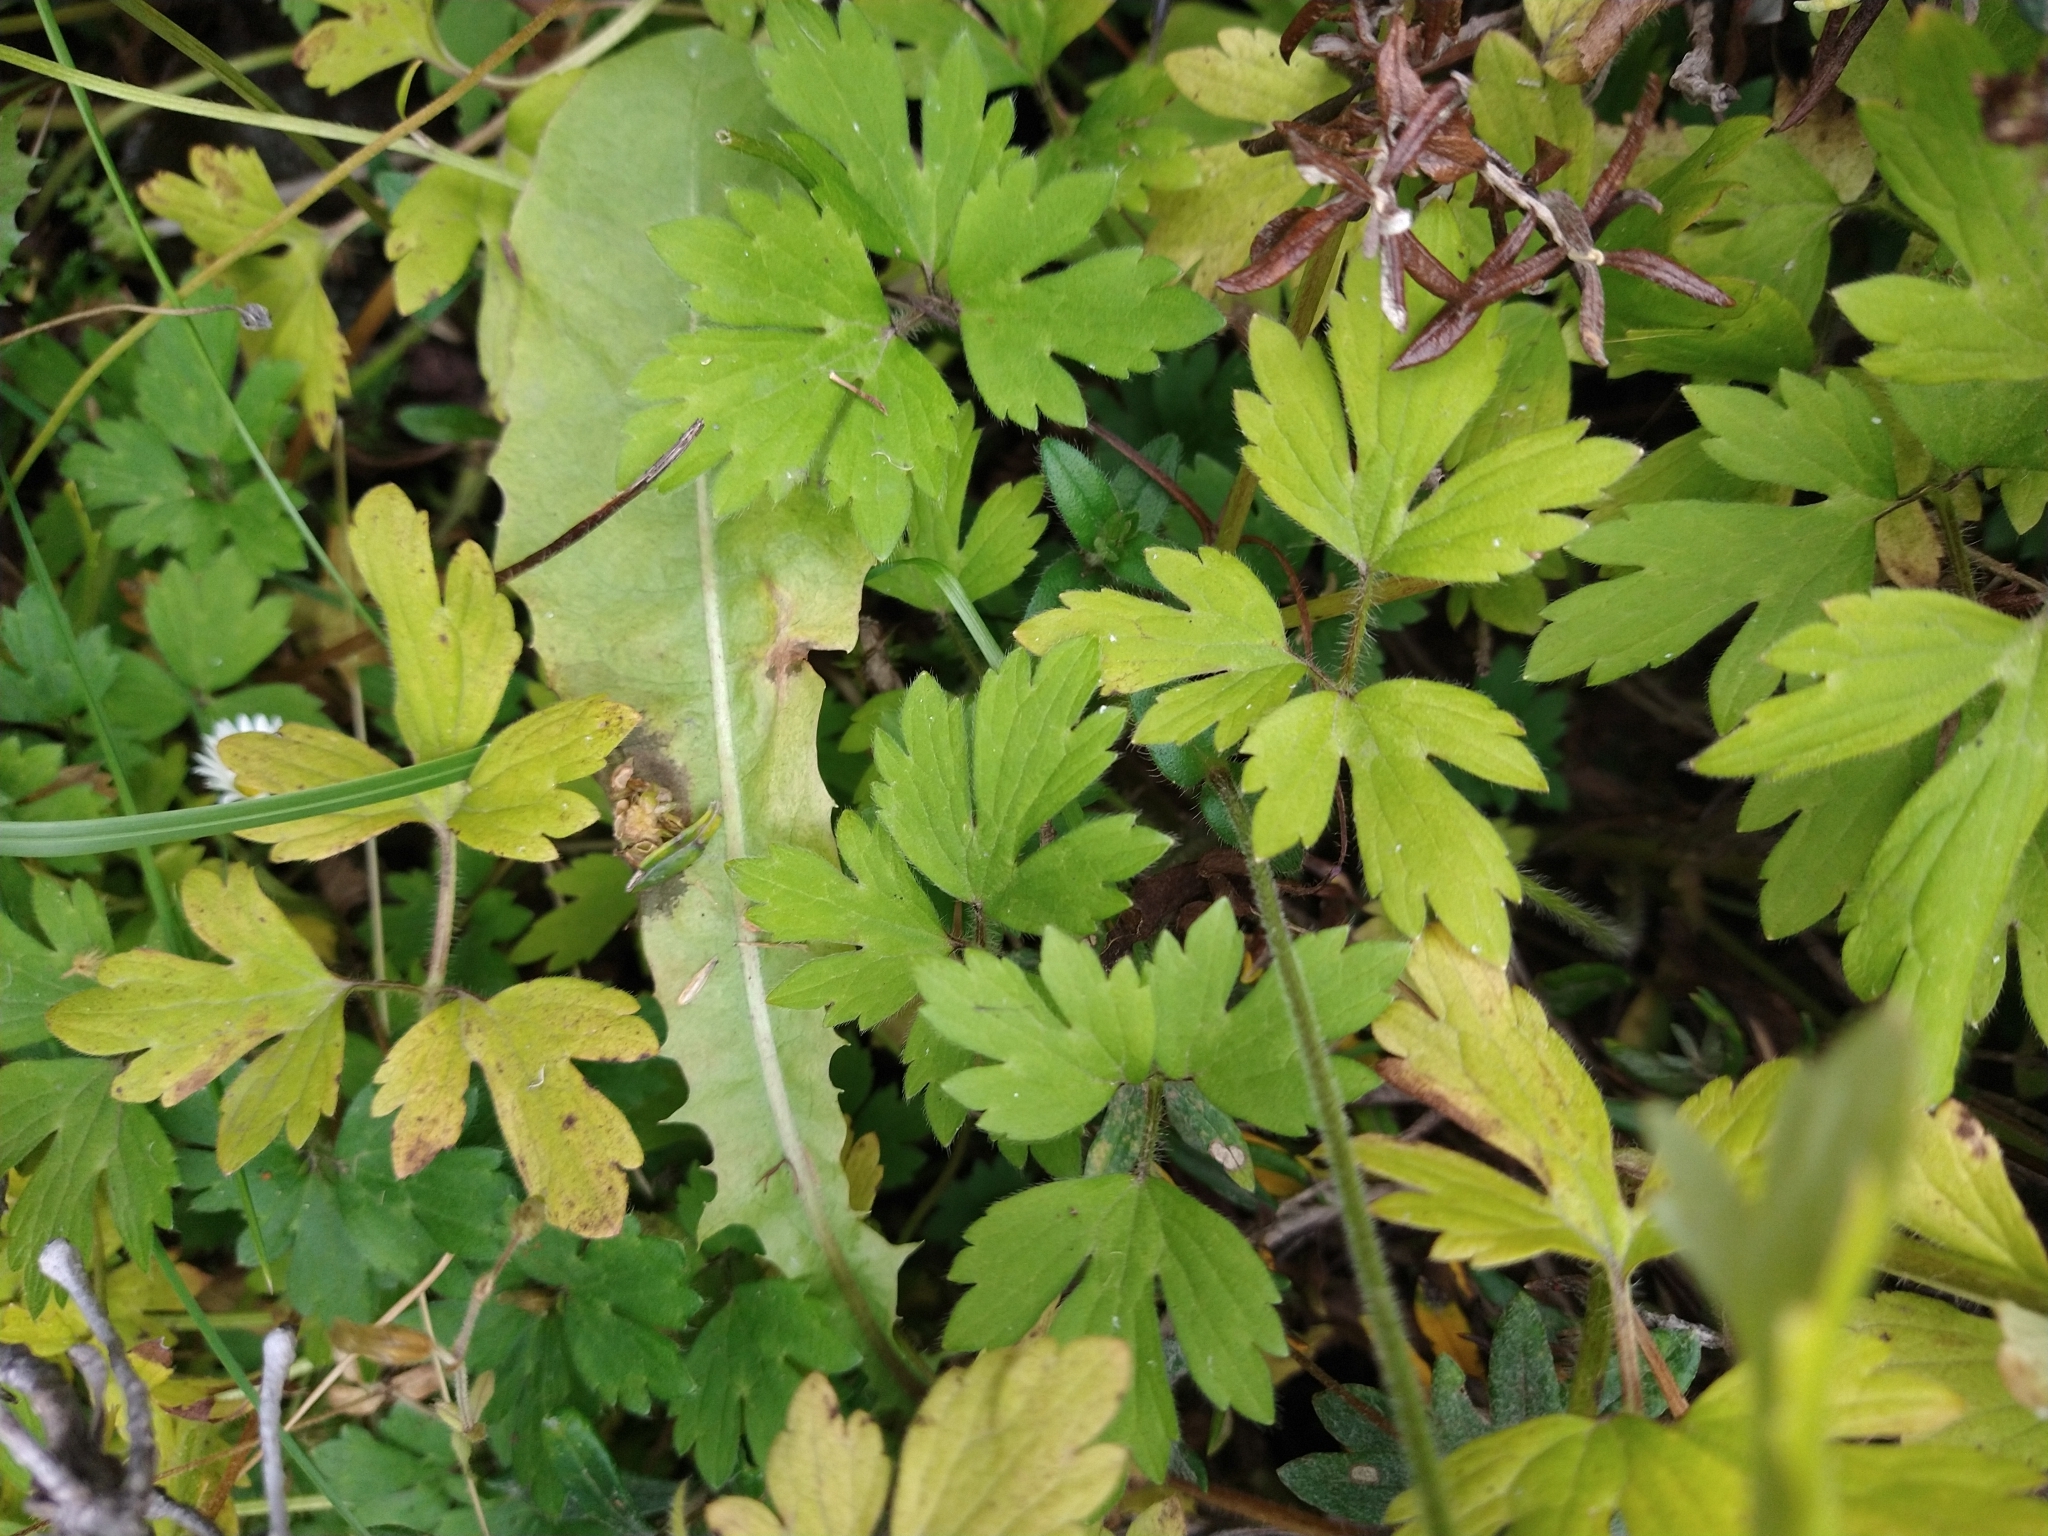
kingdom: Plantae
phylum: Tracheophyta
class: Magnoliopsida
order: Ranunculales
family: Ranunculaceae
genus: Ranunculus
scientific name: Ranunculus repens
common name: Creeping buttercup
